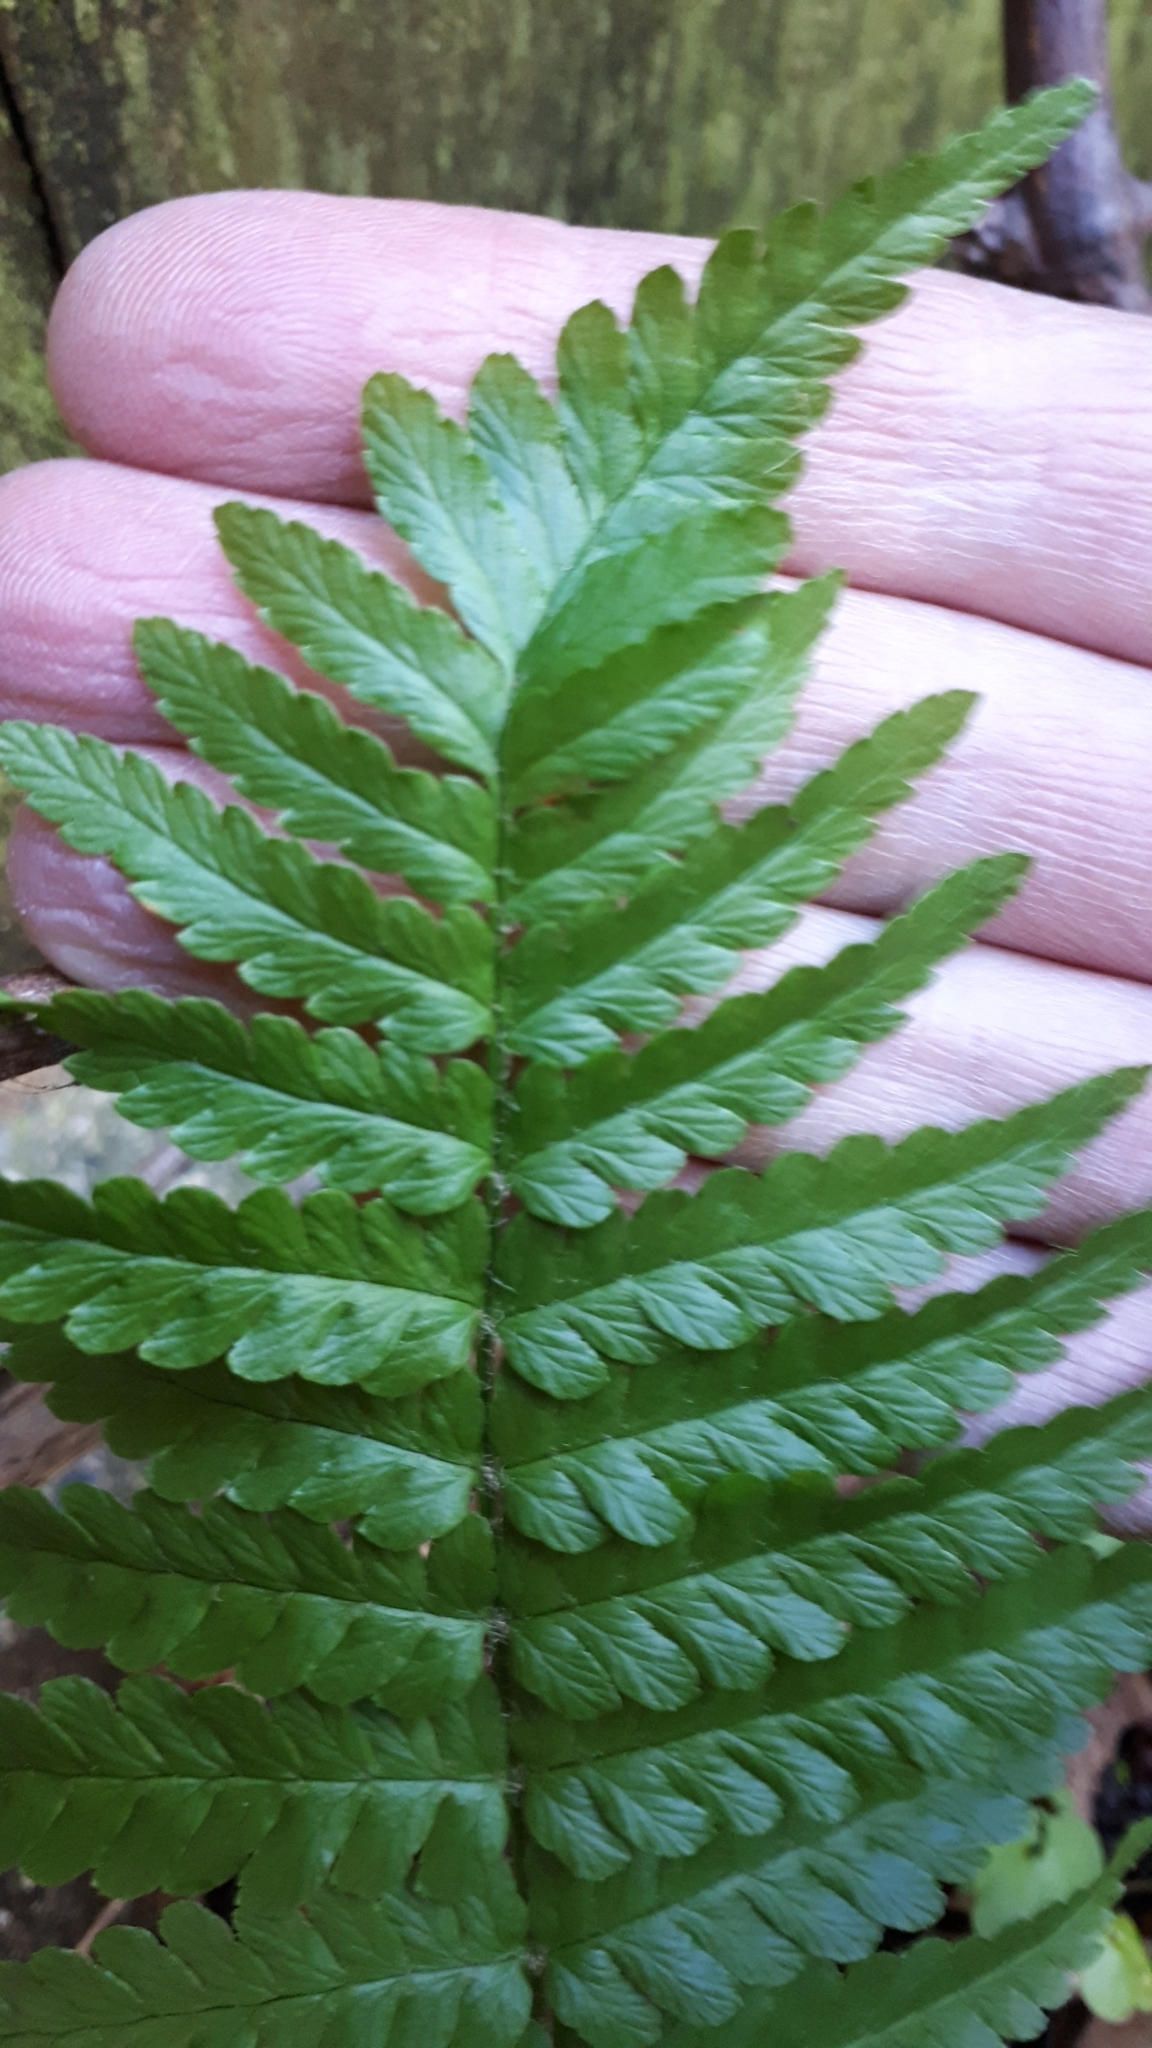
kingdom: Plantae
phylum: Tracheophyta
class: Polypodiopsida
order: Polypodiales
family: Dryopteridaceae
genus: Dryopteris
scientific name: Dryopteris filix-mas
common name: Male fern
